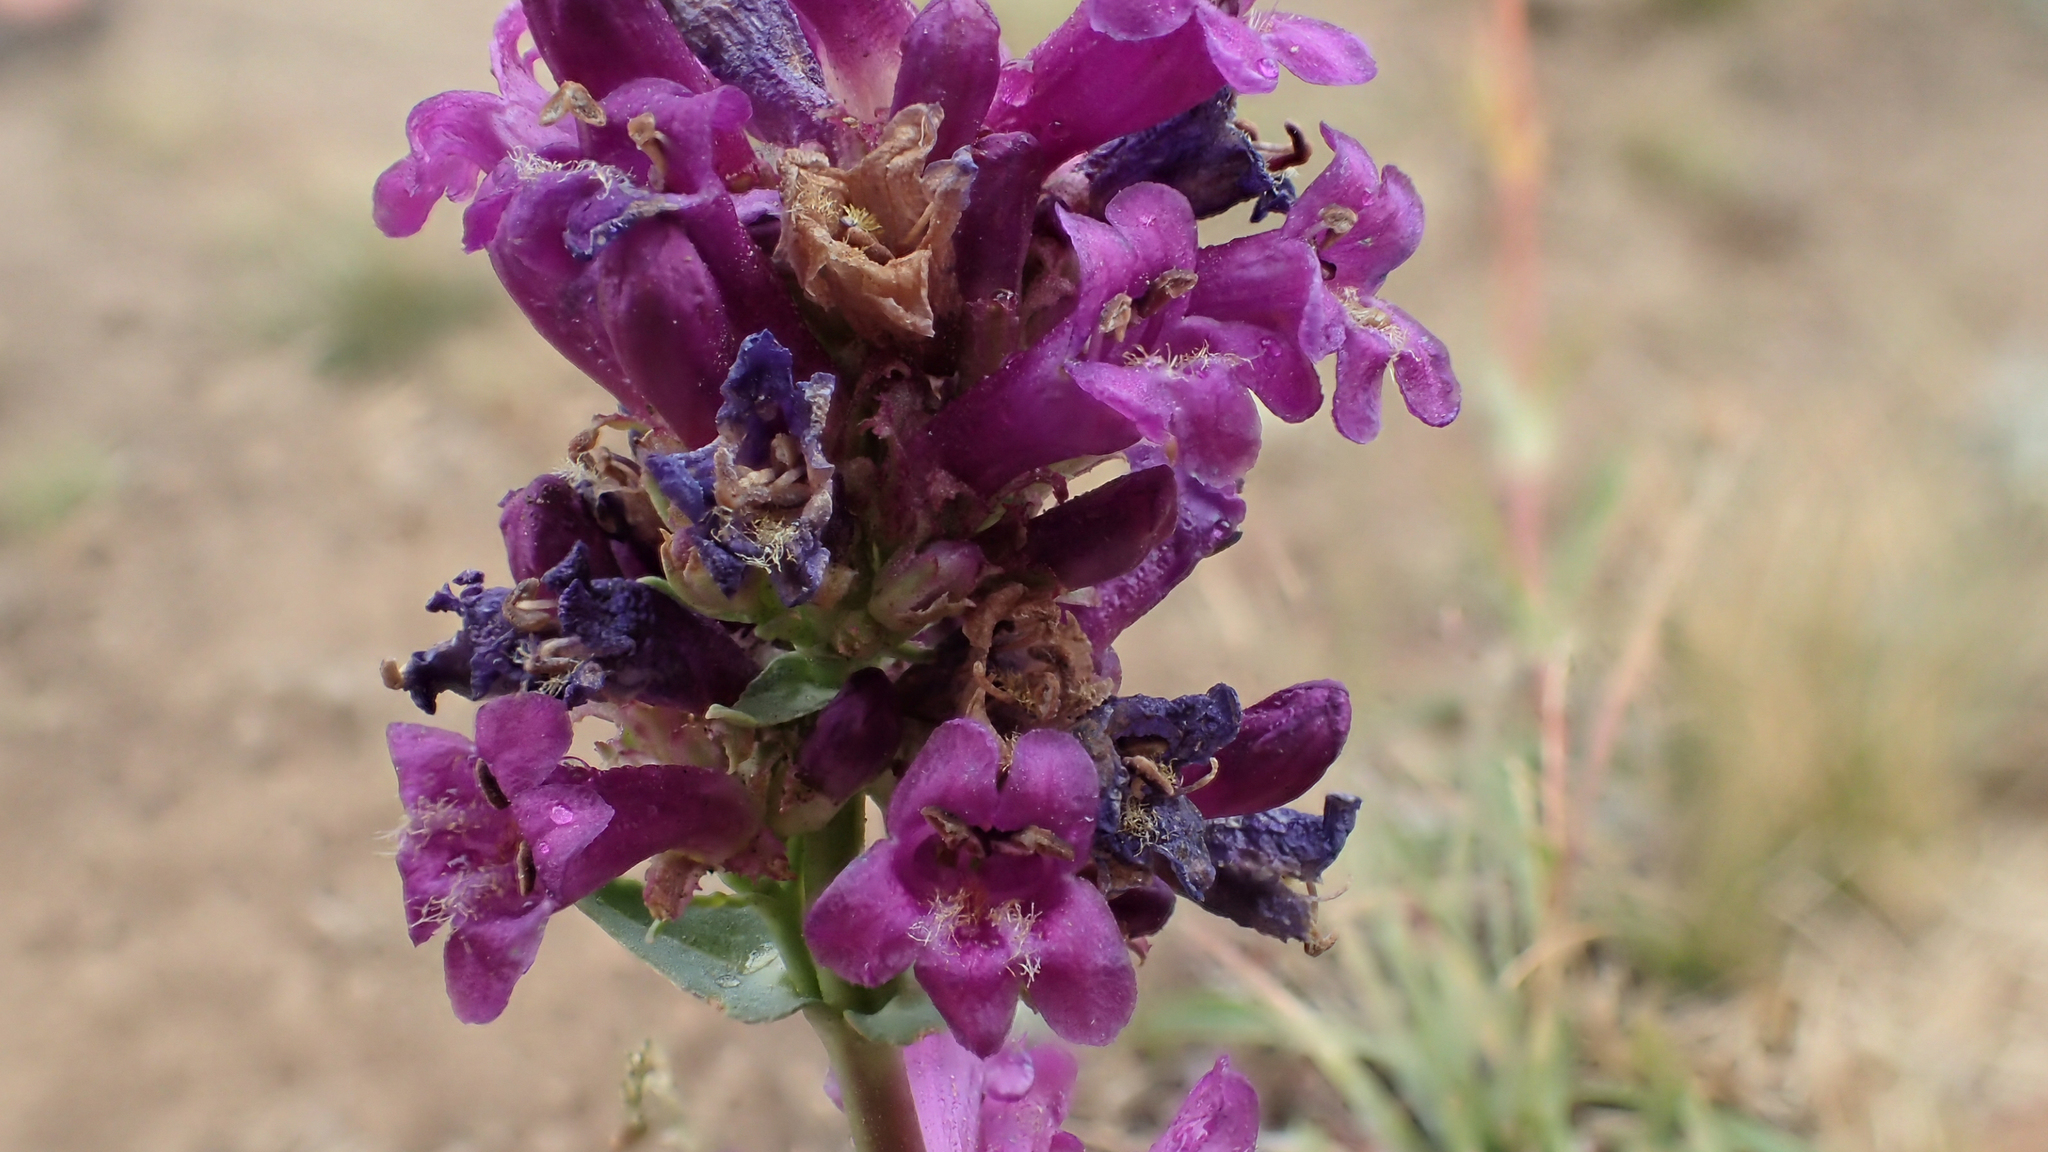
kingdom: Plantae
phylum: Tracheophyta
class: Magnoliopsida
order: Lamiales
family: Plantaginaceae
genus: Penstemon
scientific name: Penstemon rydbergii
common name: Rydberg's beardtongue
